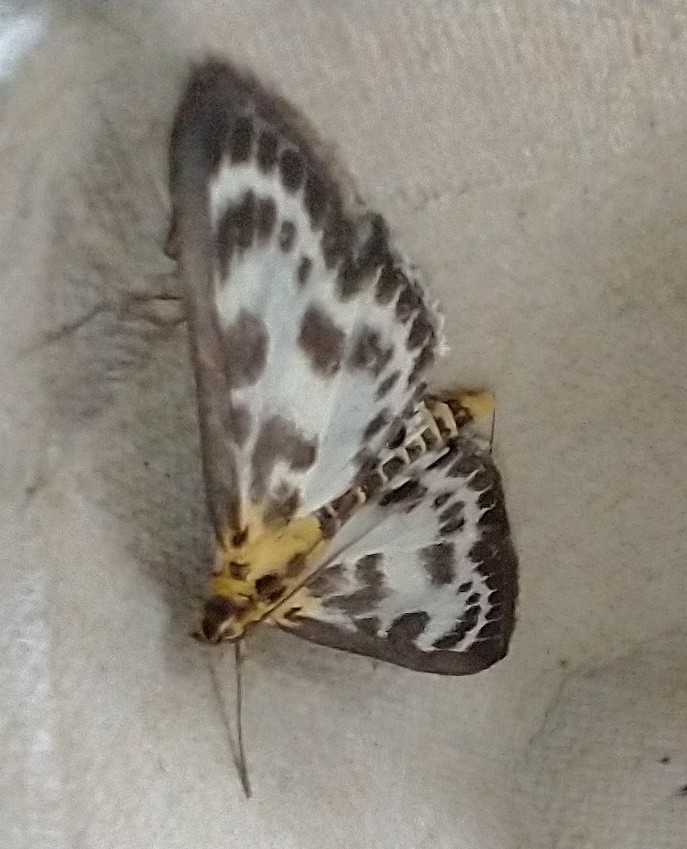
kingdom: Animalia
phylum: Arthropoda
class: Insecta
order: Lepidoptera
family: Crambidae
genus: Anania
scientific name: Anania hortulata
